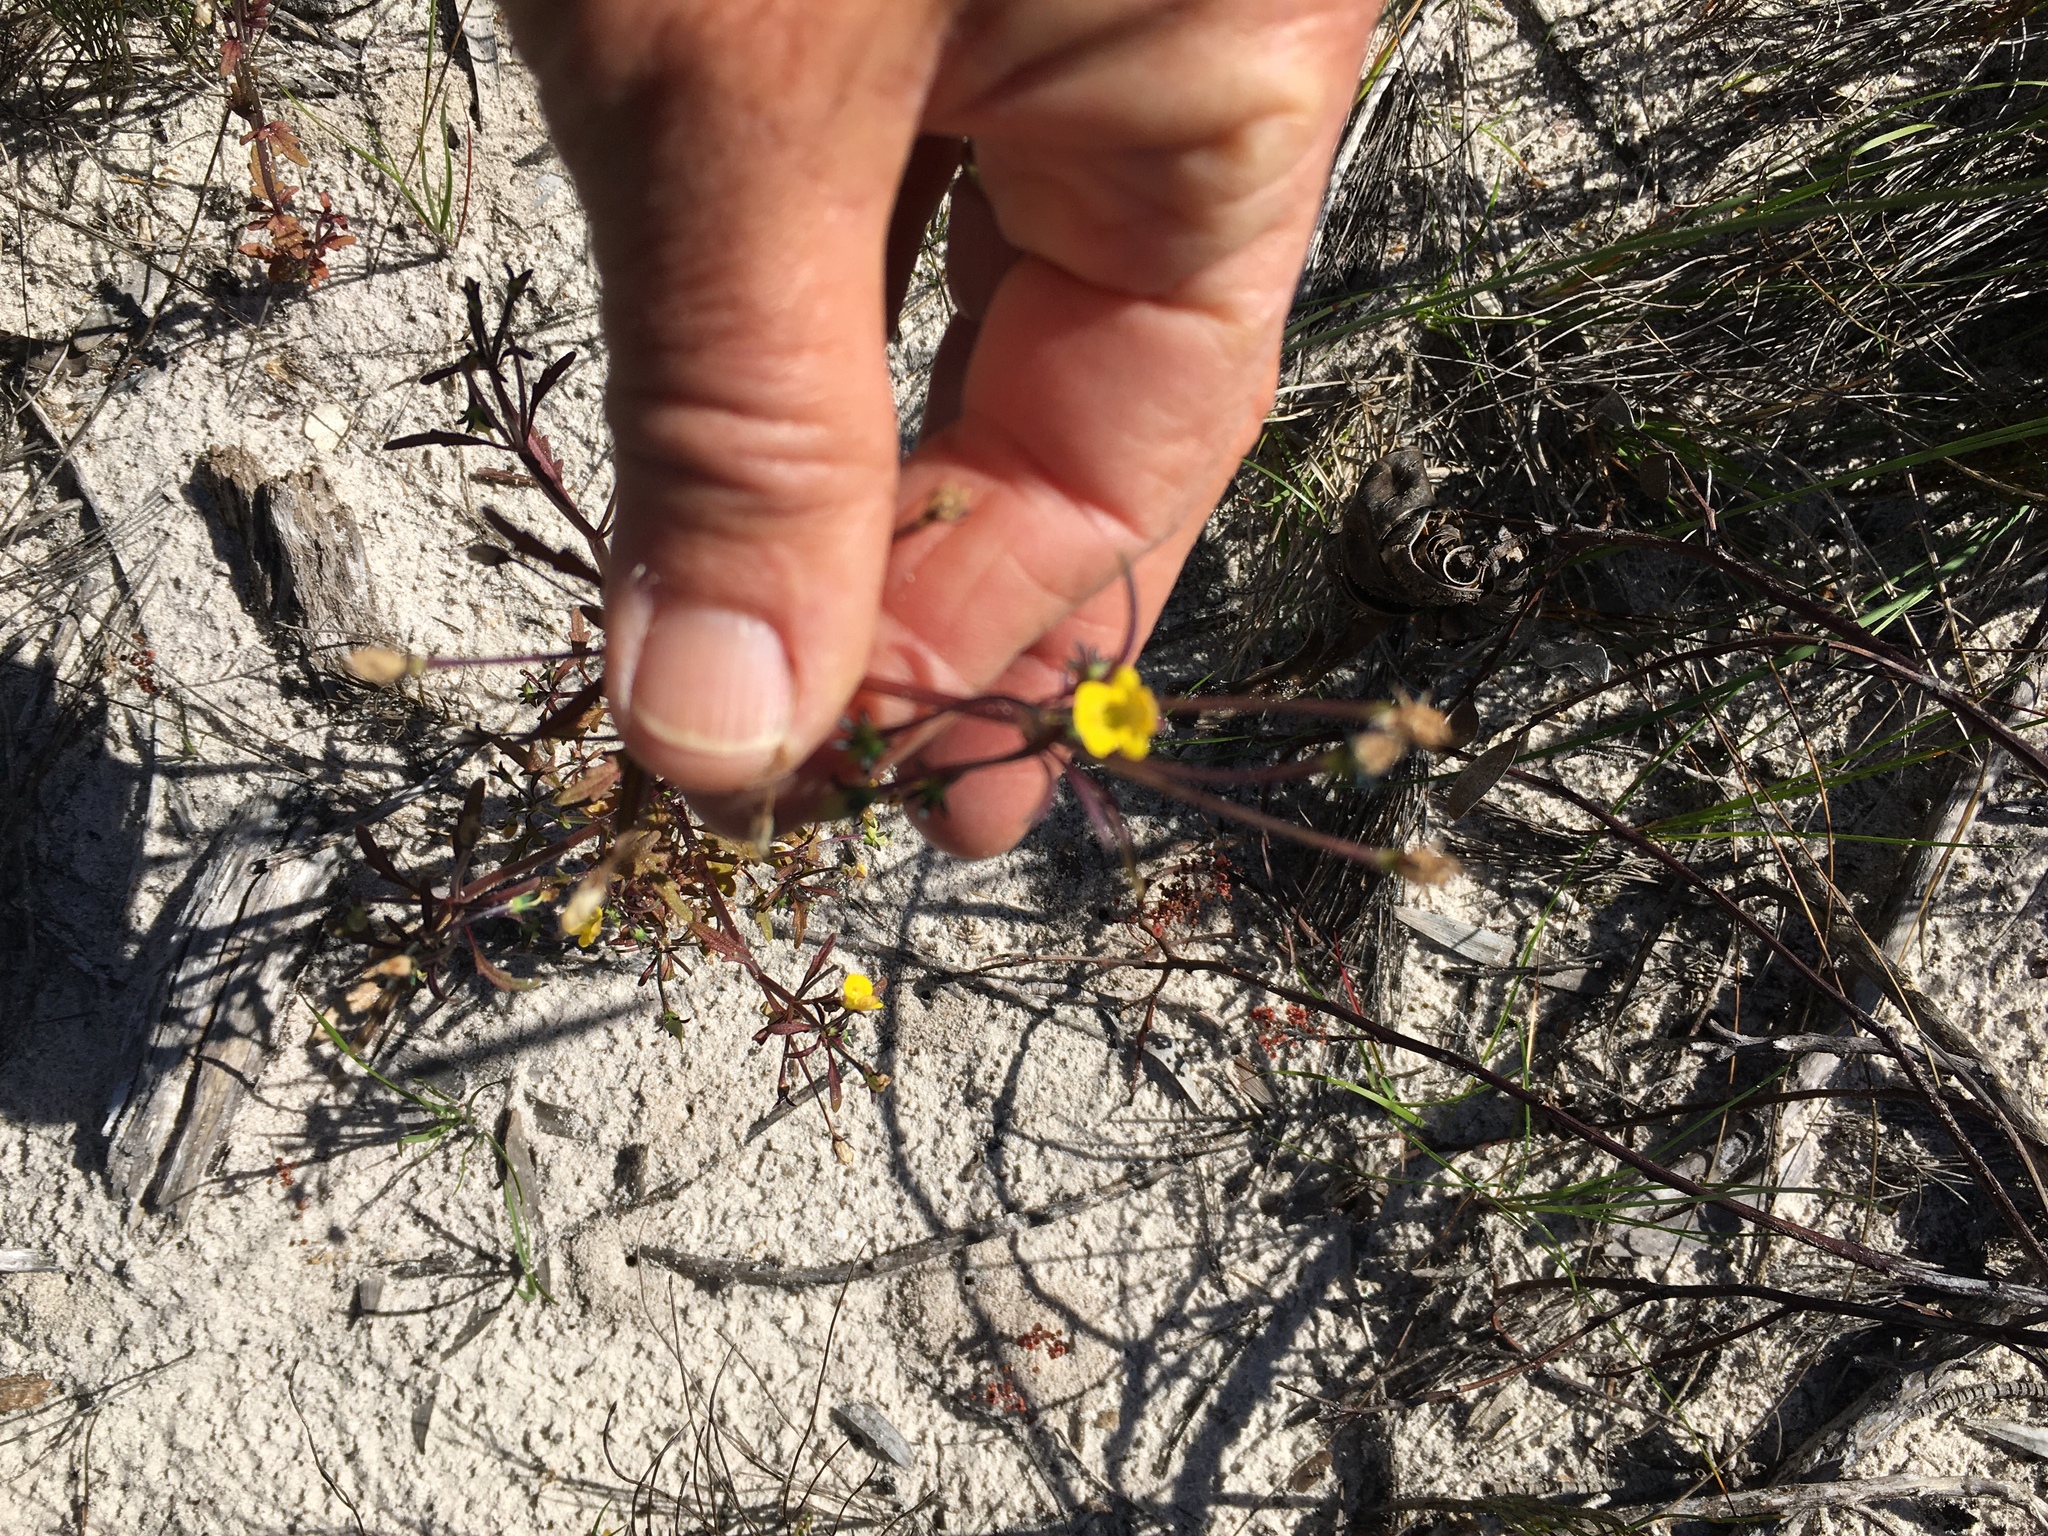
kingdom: Plantae
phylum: Tracheophyta
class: Magnoliopsida
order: Lamiales
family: Scrophulariaceae
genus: Hemimeris
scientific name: Hemimeris racemosa
